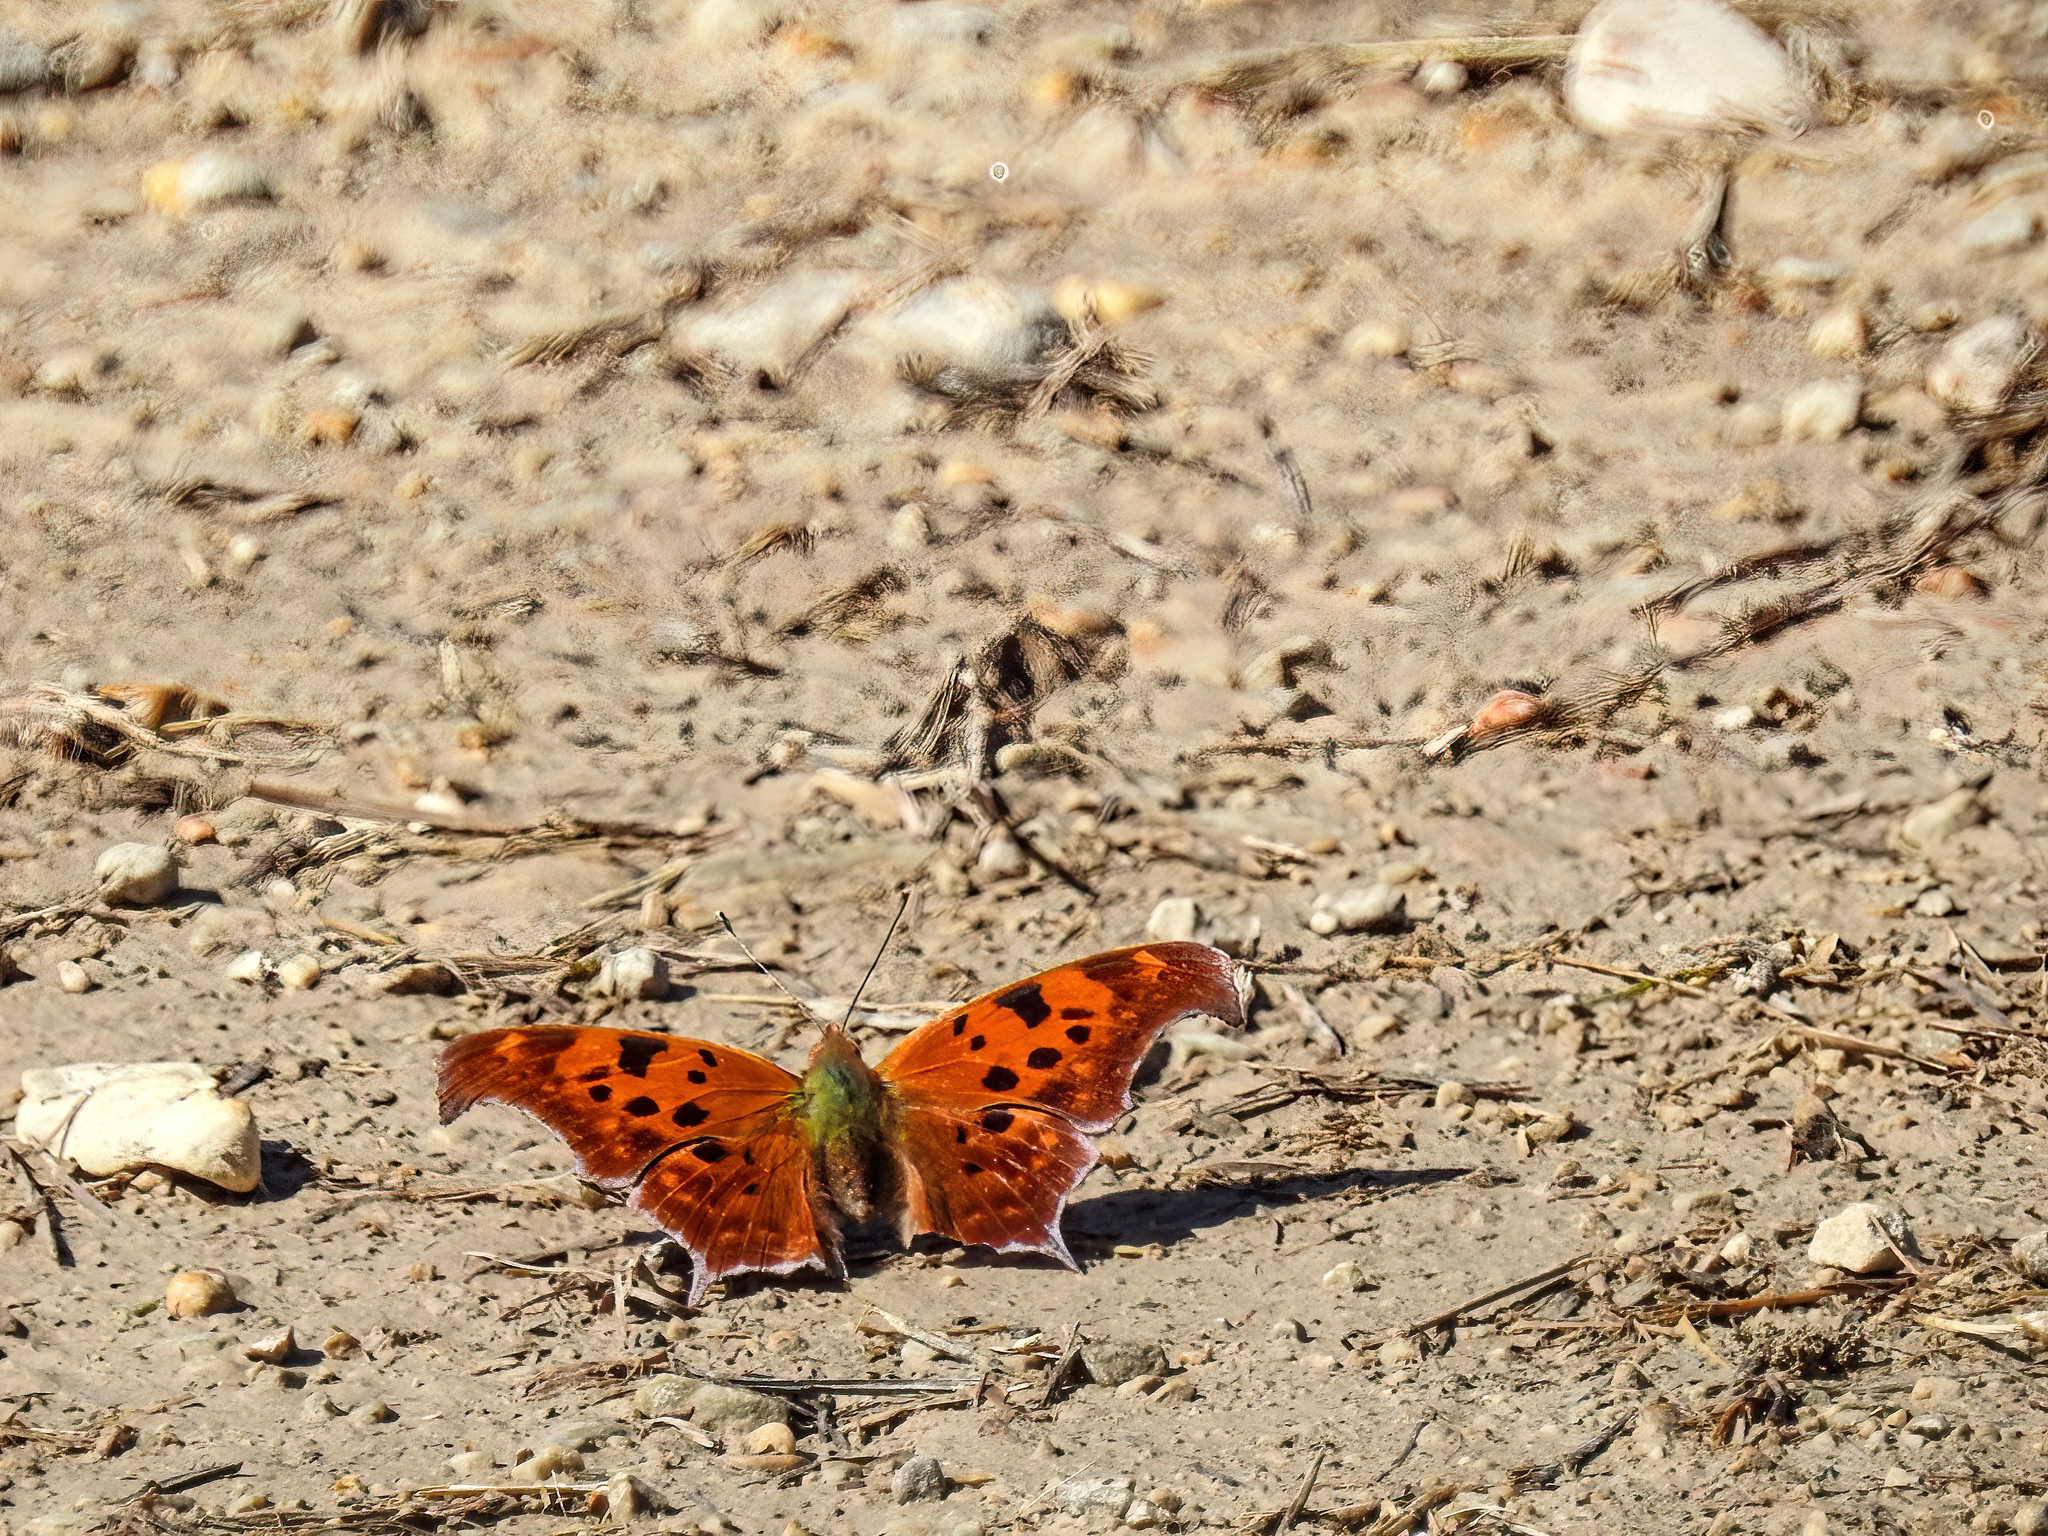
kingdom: Animalia
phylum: Arthropoda
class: Insecta
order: Lepidoptera
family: Nymphalidae
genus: Polygonia
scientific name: Polygonia interrogationis
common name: Question mark
